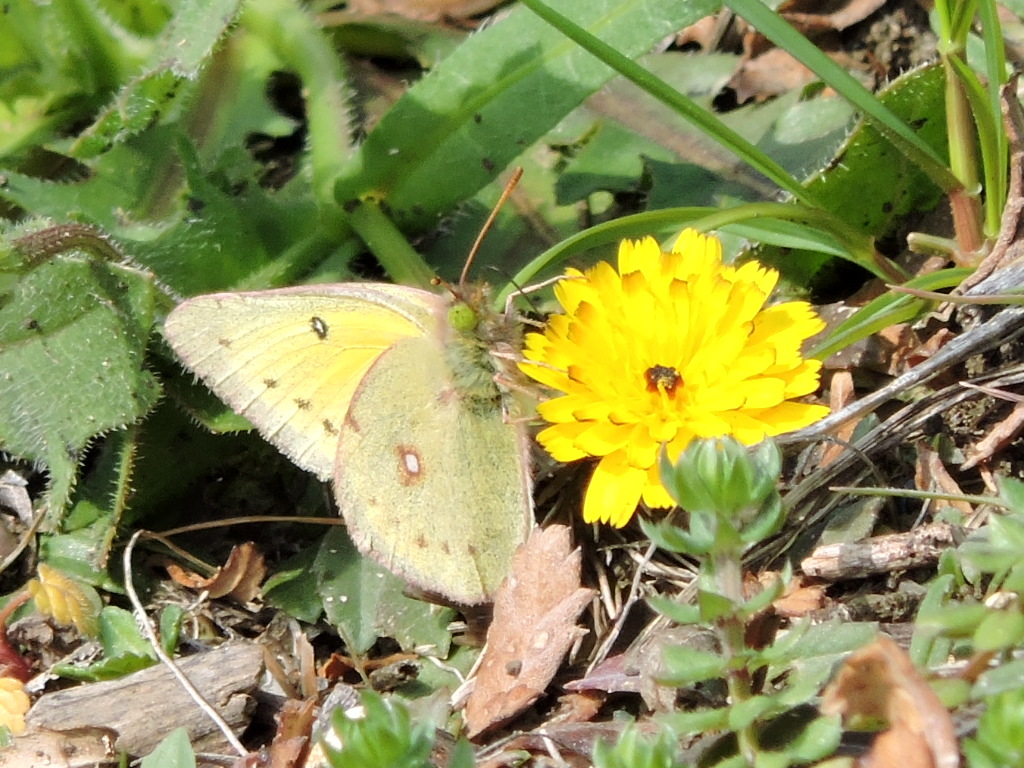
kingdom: Animalia
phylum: Arthropoda
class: Insecta
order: Lepidoptera
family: Pieridae
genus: Colias
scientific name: Colias eurytheme
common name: Alfalfa butterfly
